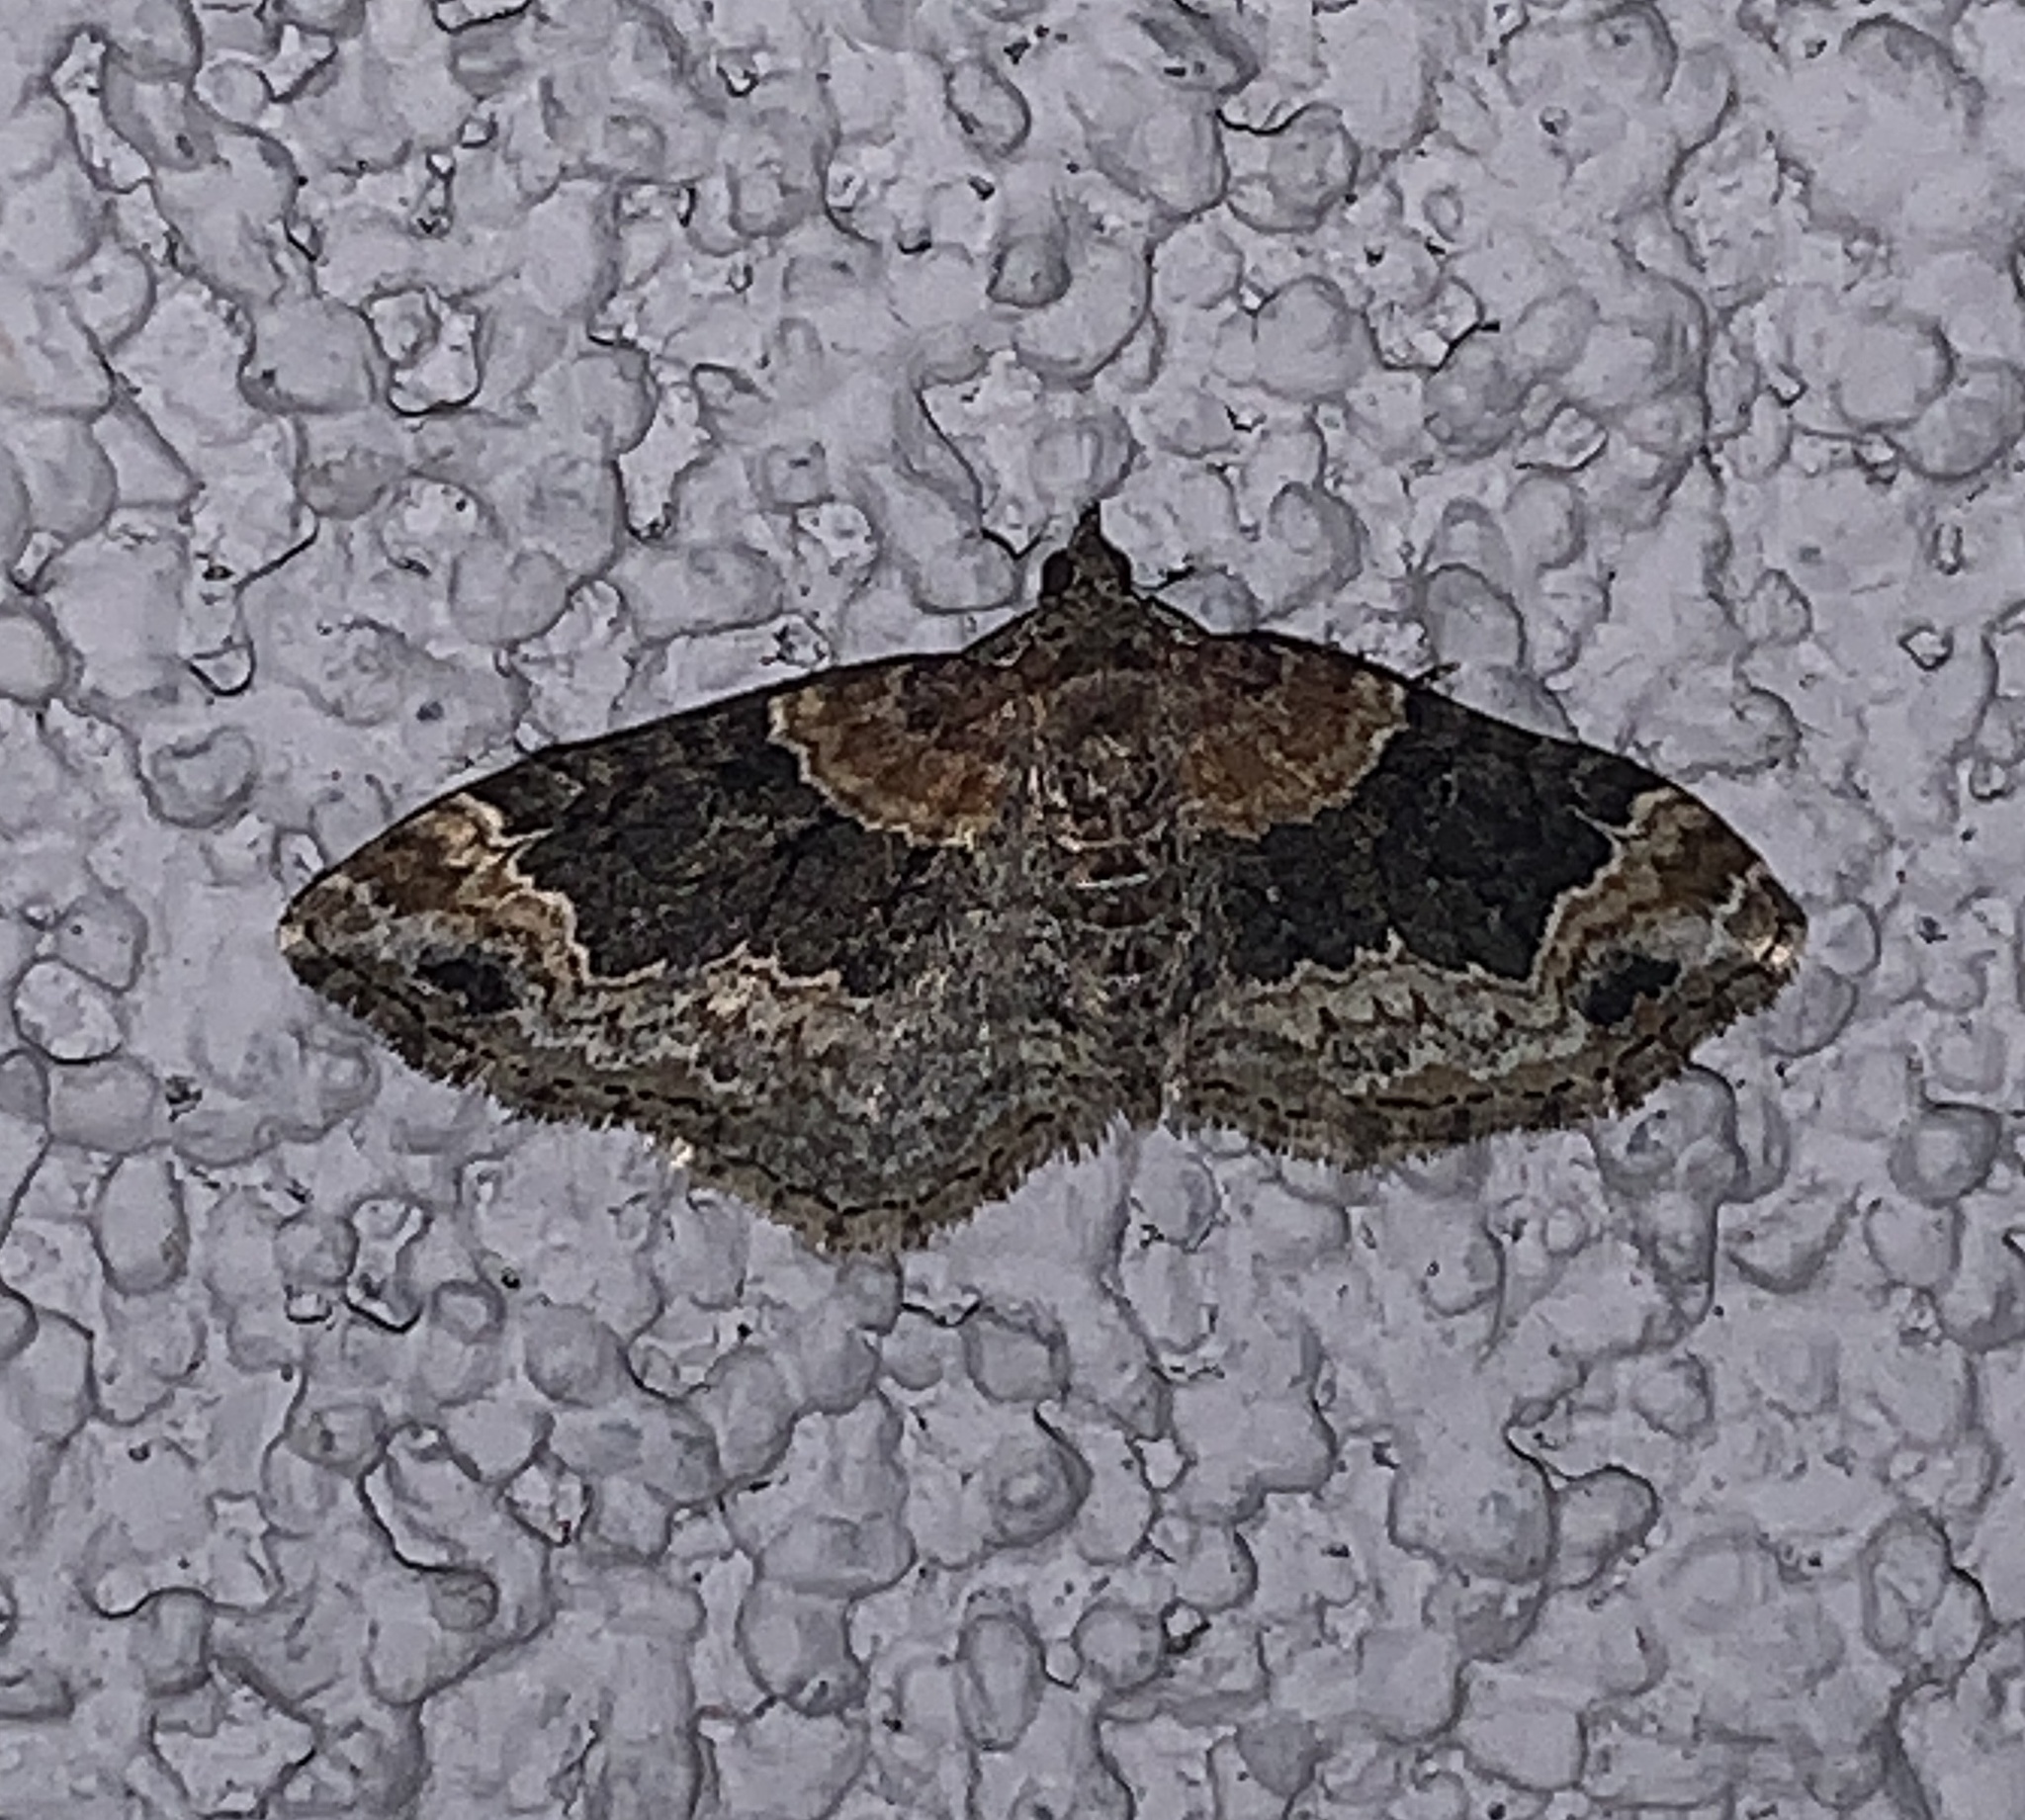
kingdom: Animalia
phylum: Arthropoda
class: Insecta
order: Lepidoptera
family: Geometridae
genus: Xanthorhoe
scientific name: Xanthorhoe ferrugata
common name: Dark-barred twin-spot carpet
